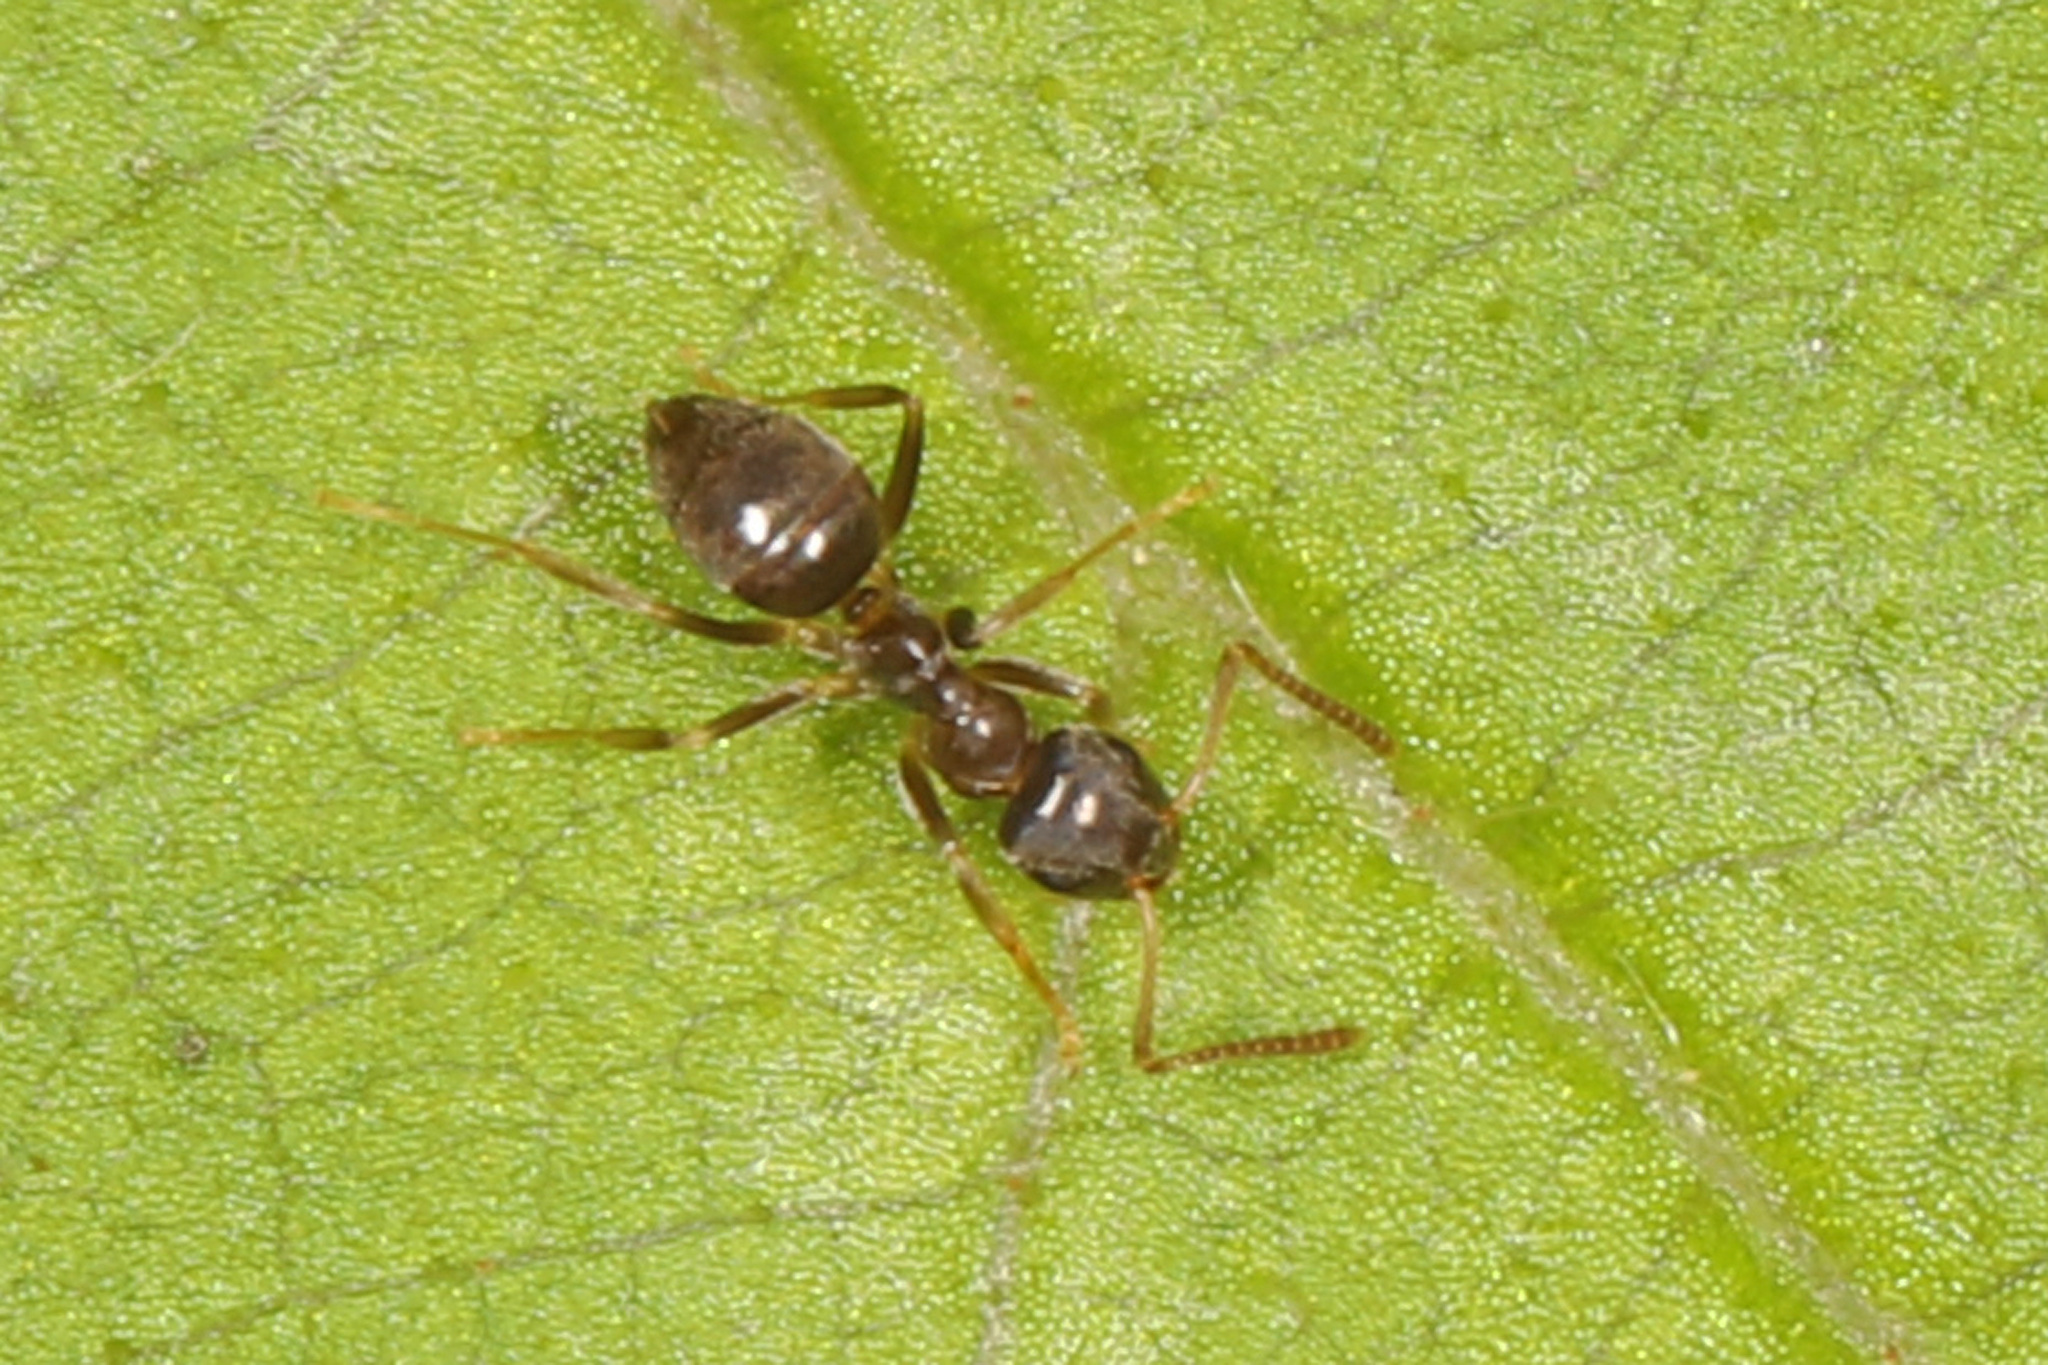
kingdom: Animalia
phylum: Arthropoda
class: Insecta
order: Hymenoptera
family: Formicidae
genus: Lasius
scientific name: Lasius americanus
